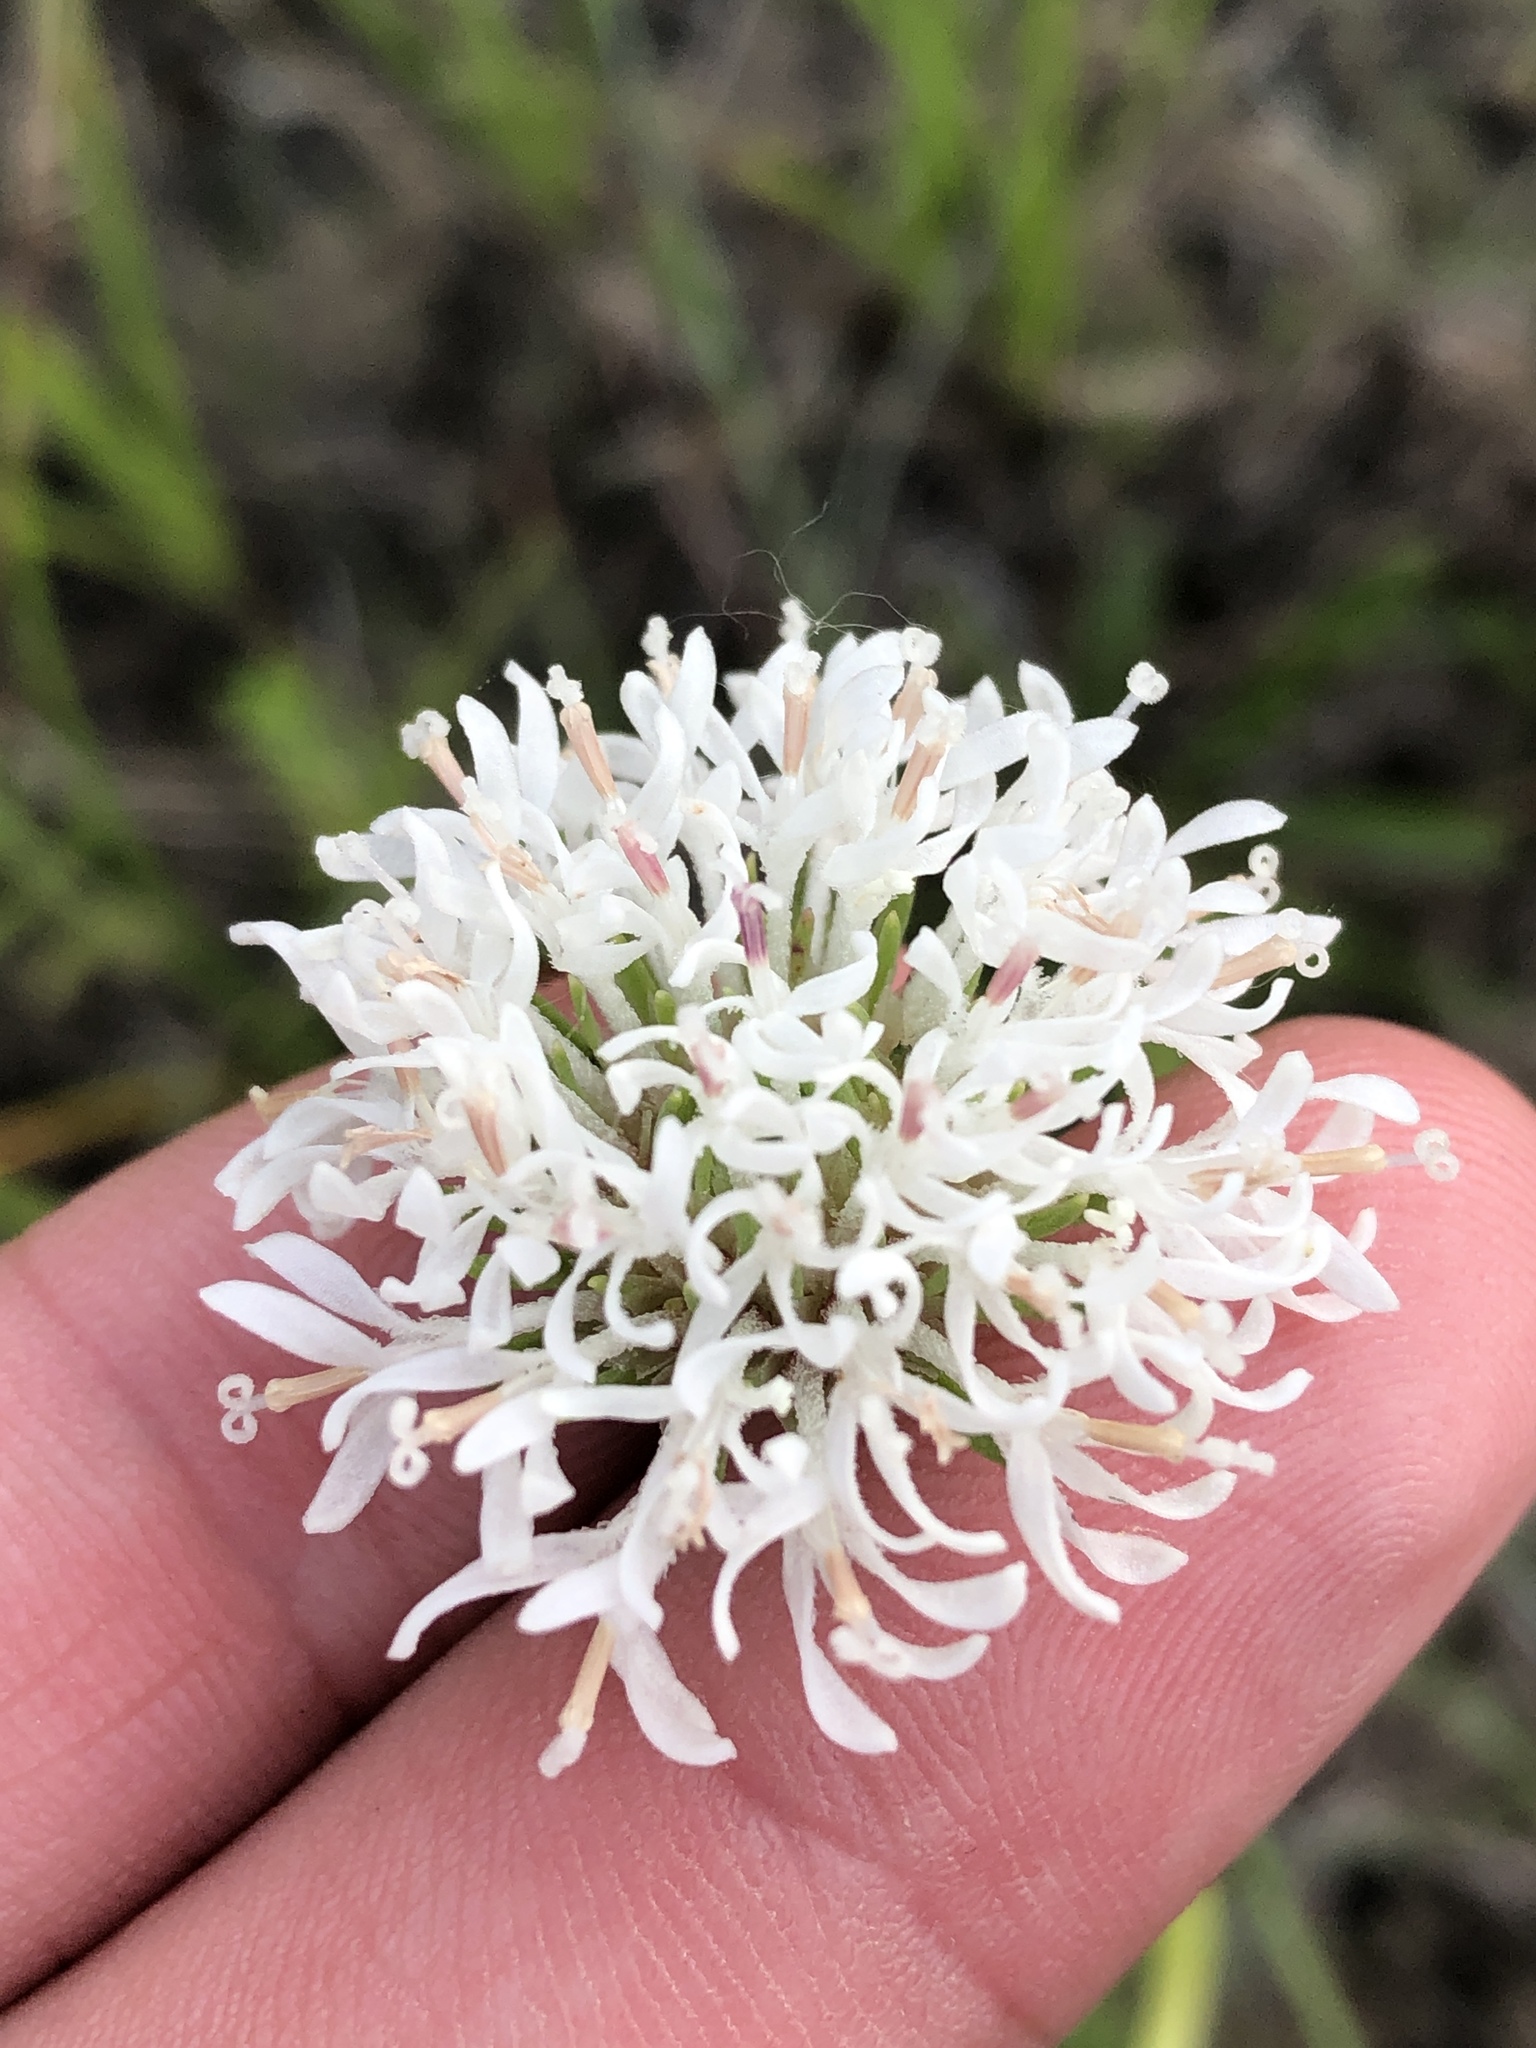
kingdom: Plantae
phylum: Tracheophyta
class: Magnoliopsida
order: Asterales
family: Asteraceae
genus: Marshallia
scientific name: Marshallia caespitosa
